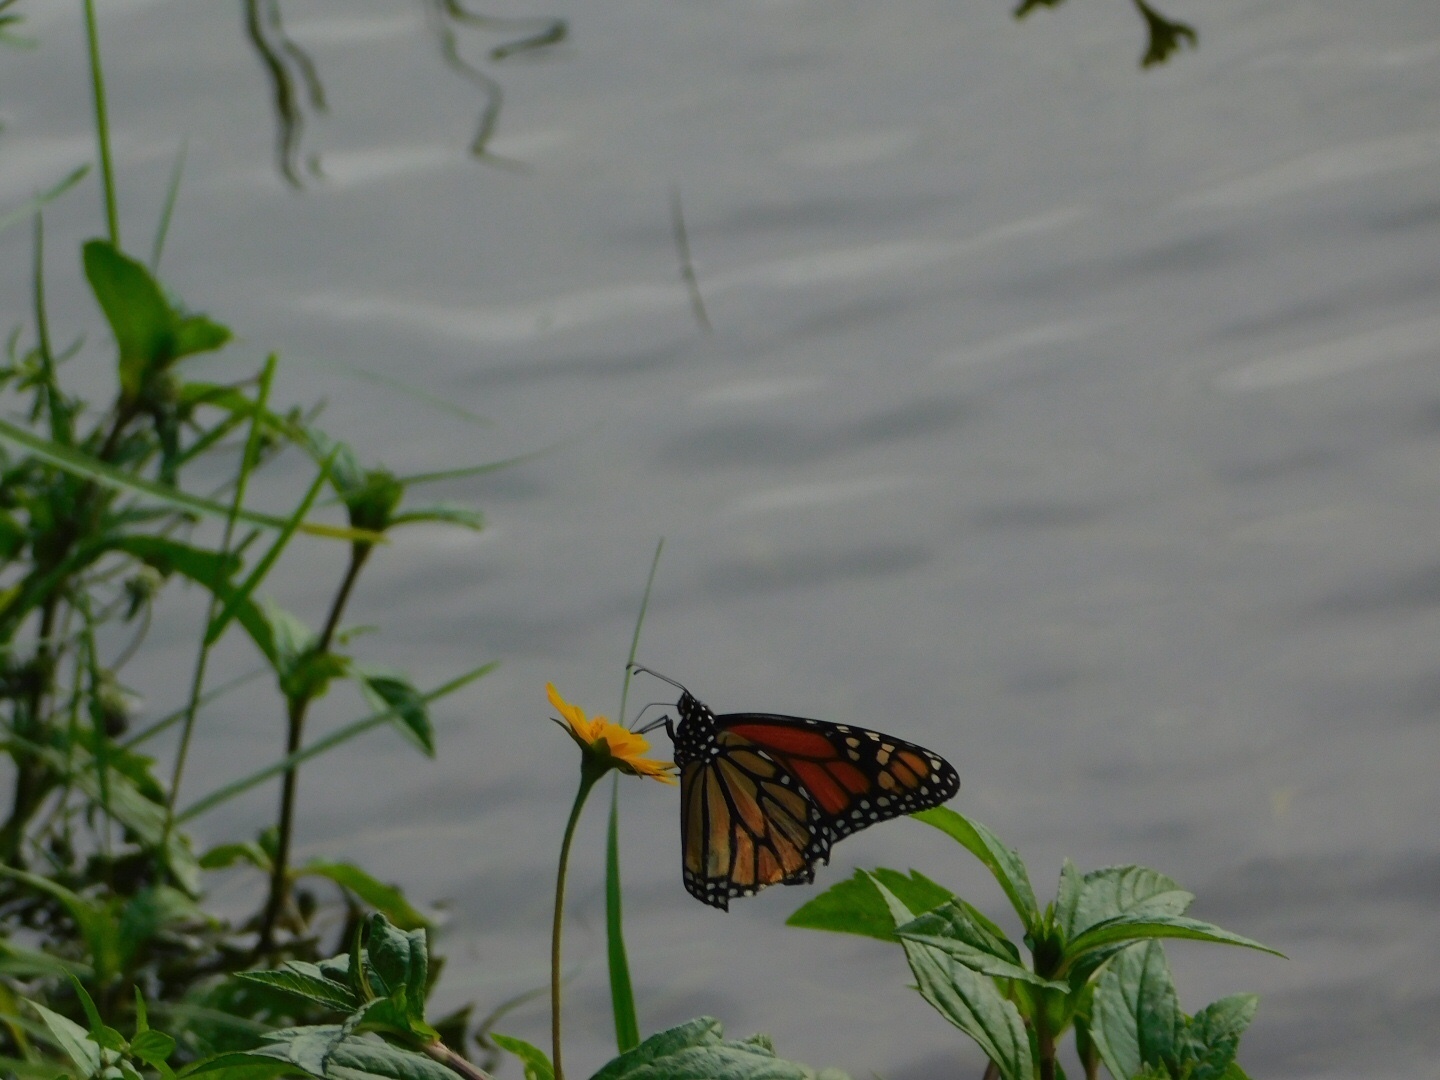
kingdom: Animalia
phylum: Arthropoda
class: Insecta
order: Lepidoptera
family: Nymphalidae
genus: Danaus
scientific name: Danaus plexippus
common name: Monarch
